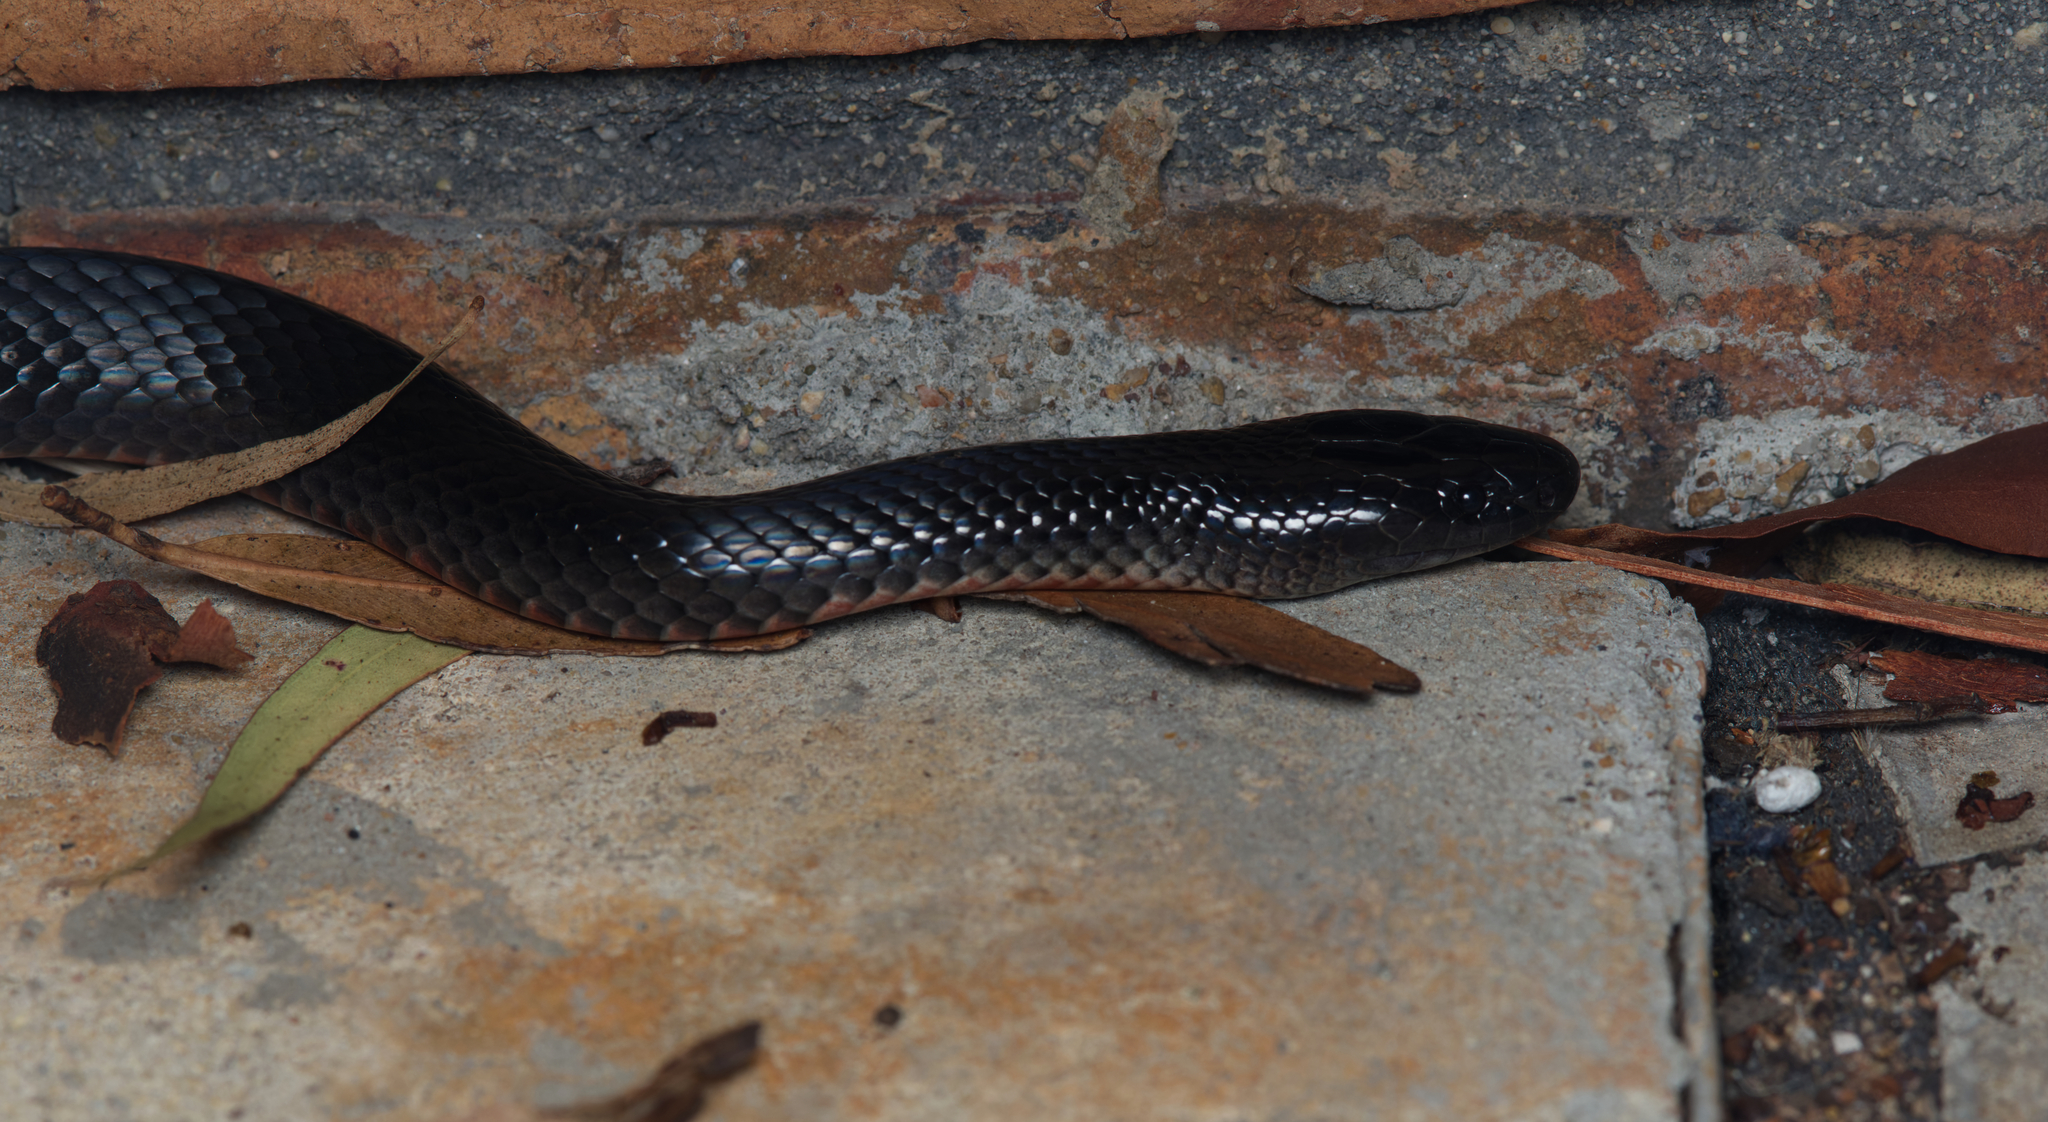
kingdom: Animalia
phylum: Chordata
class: Squamata
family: Elapidae
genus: Cryptophis
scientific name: Cryptophis nigrescens
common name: Eastern small-eyed snake
